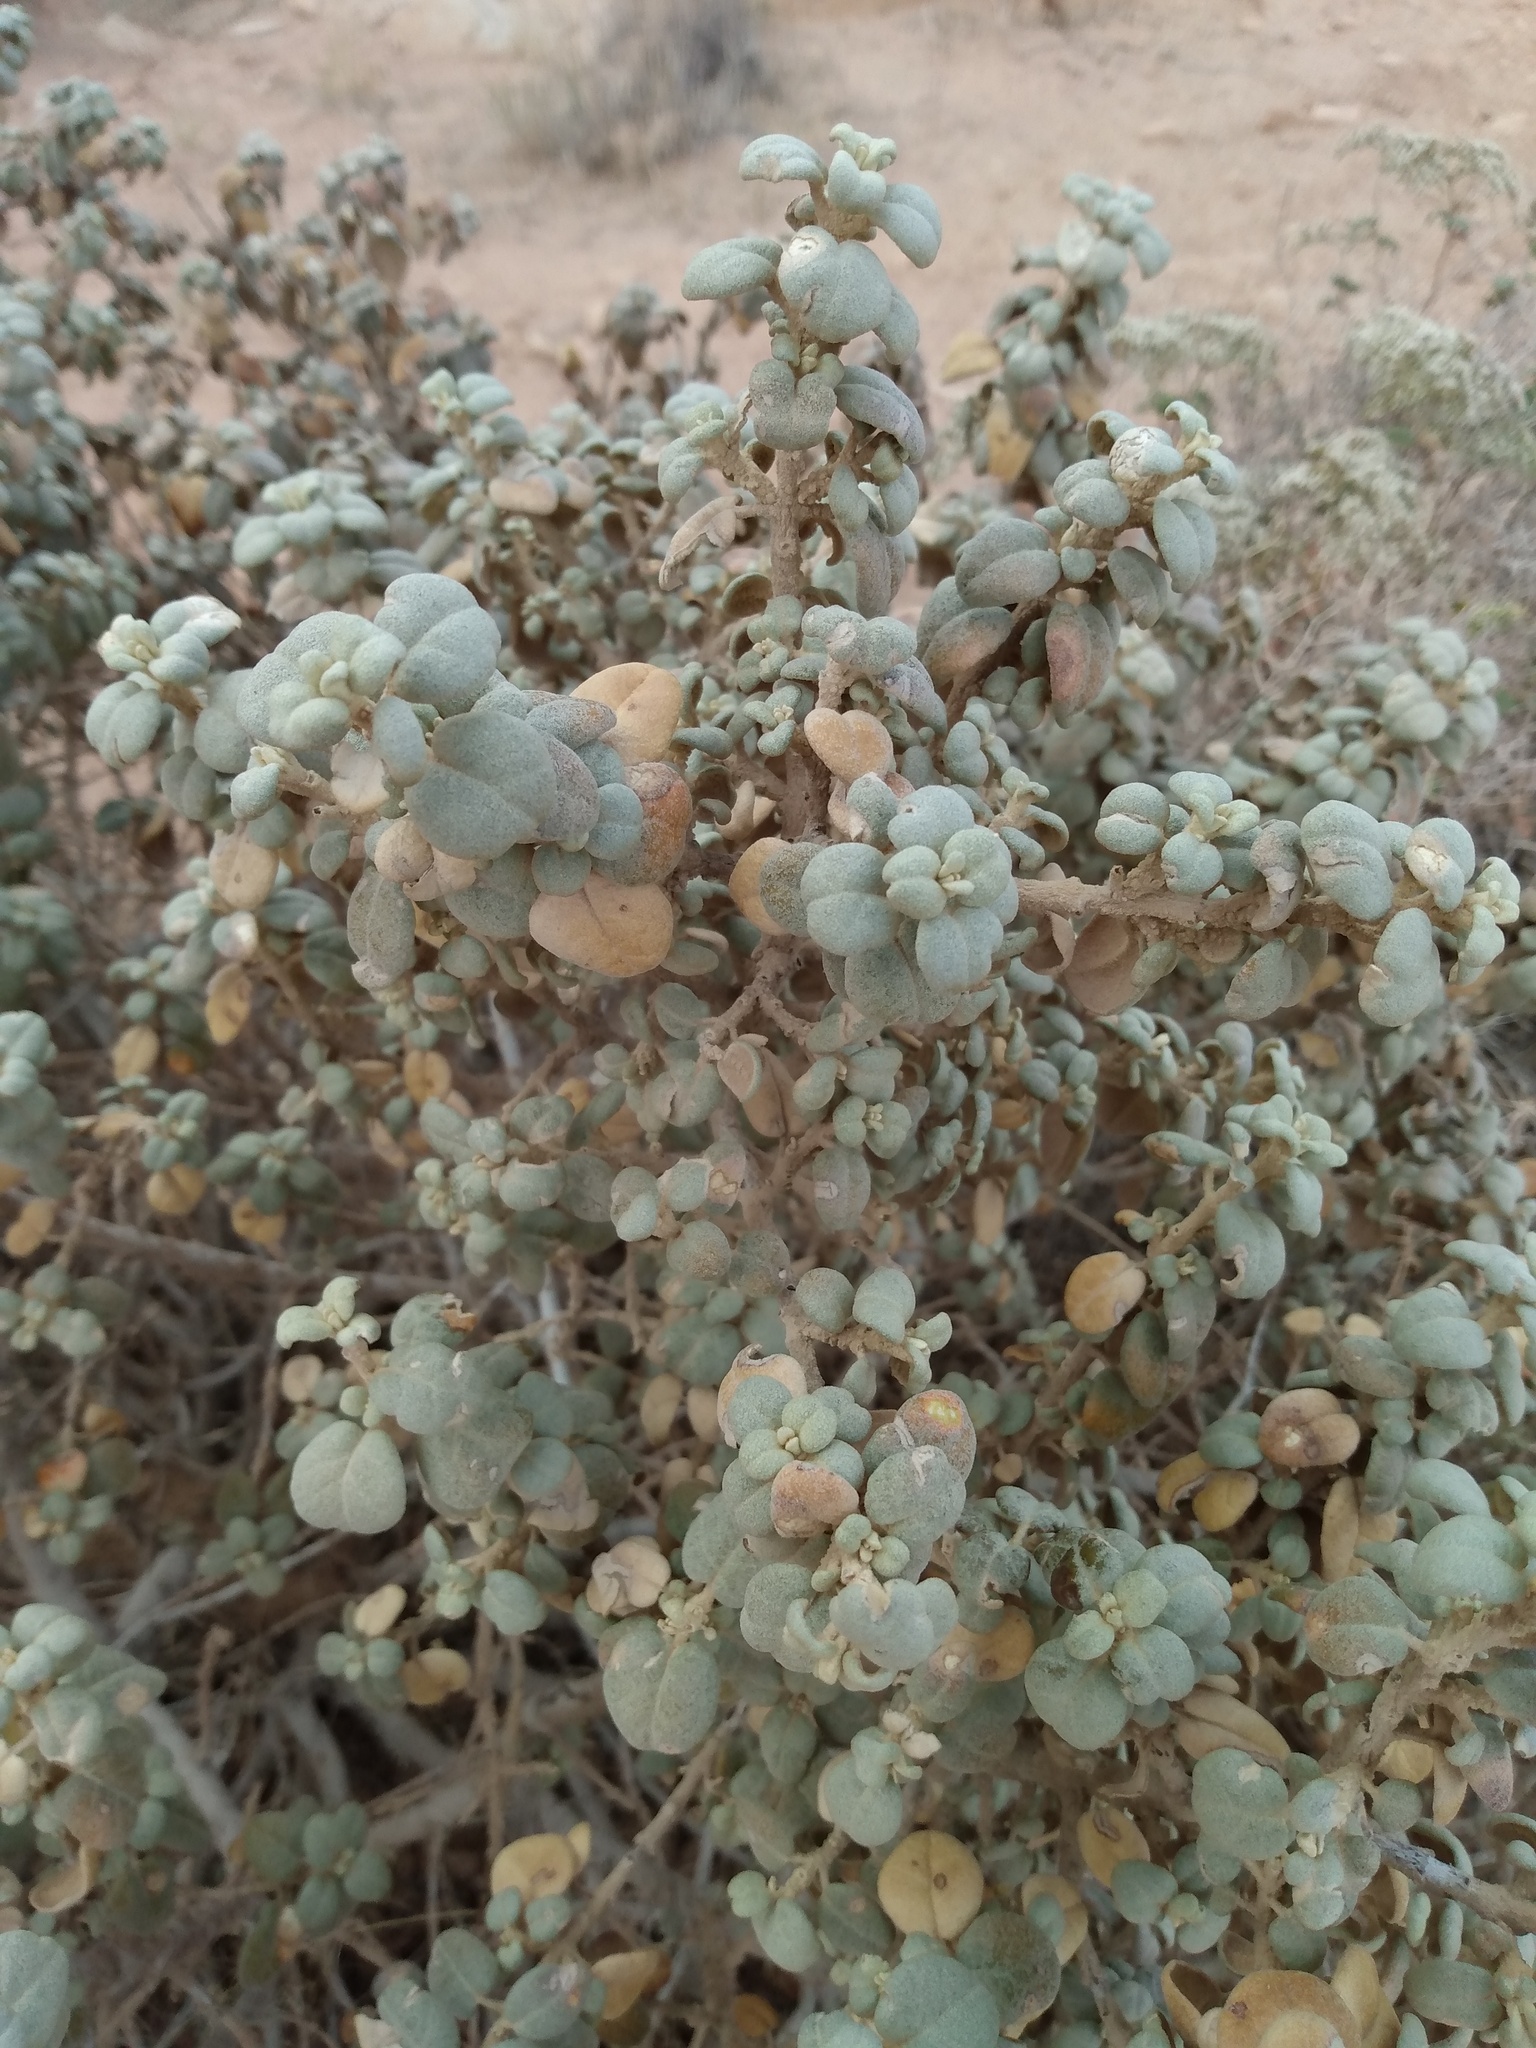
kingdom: Plantae
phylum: Tracheophyta
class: Magnoliopsida
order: Rosales
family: Elaeagnaceae
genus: Shepherdia
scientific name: Shepherdia rotundifolia
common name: Silverscale
